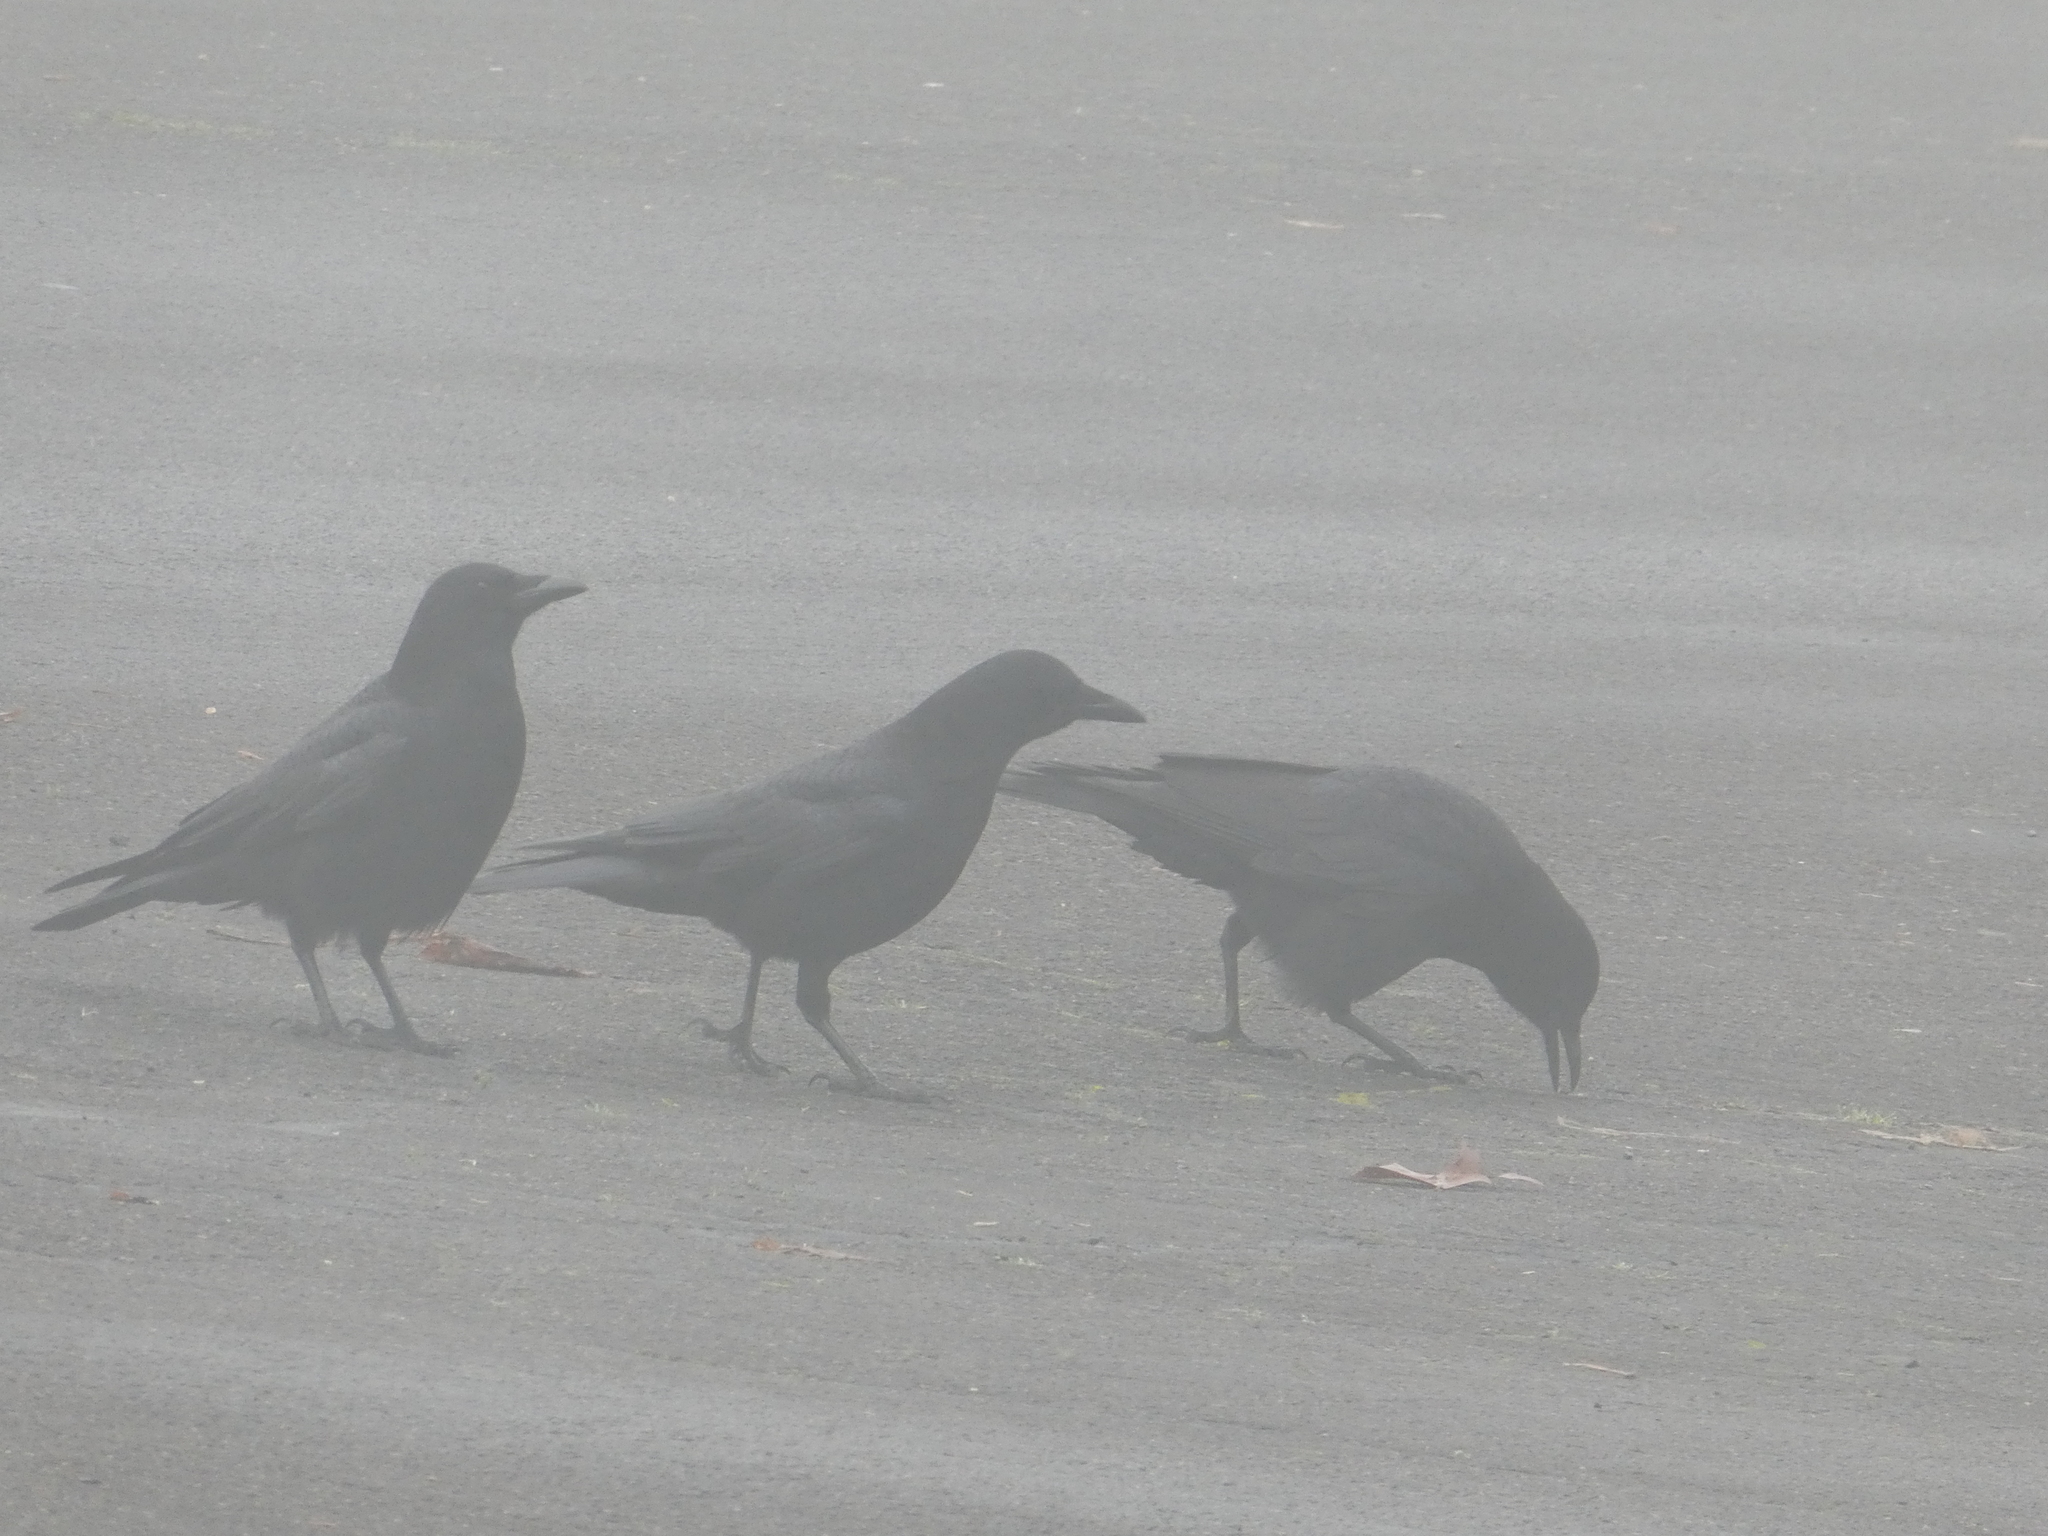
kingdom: Animalia
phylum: Chordata
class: Aves
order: Passeriformes
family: Corvidae
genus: Corvus
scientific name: Corvus brachyrhynchos
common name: American crow
